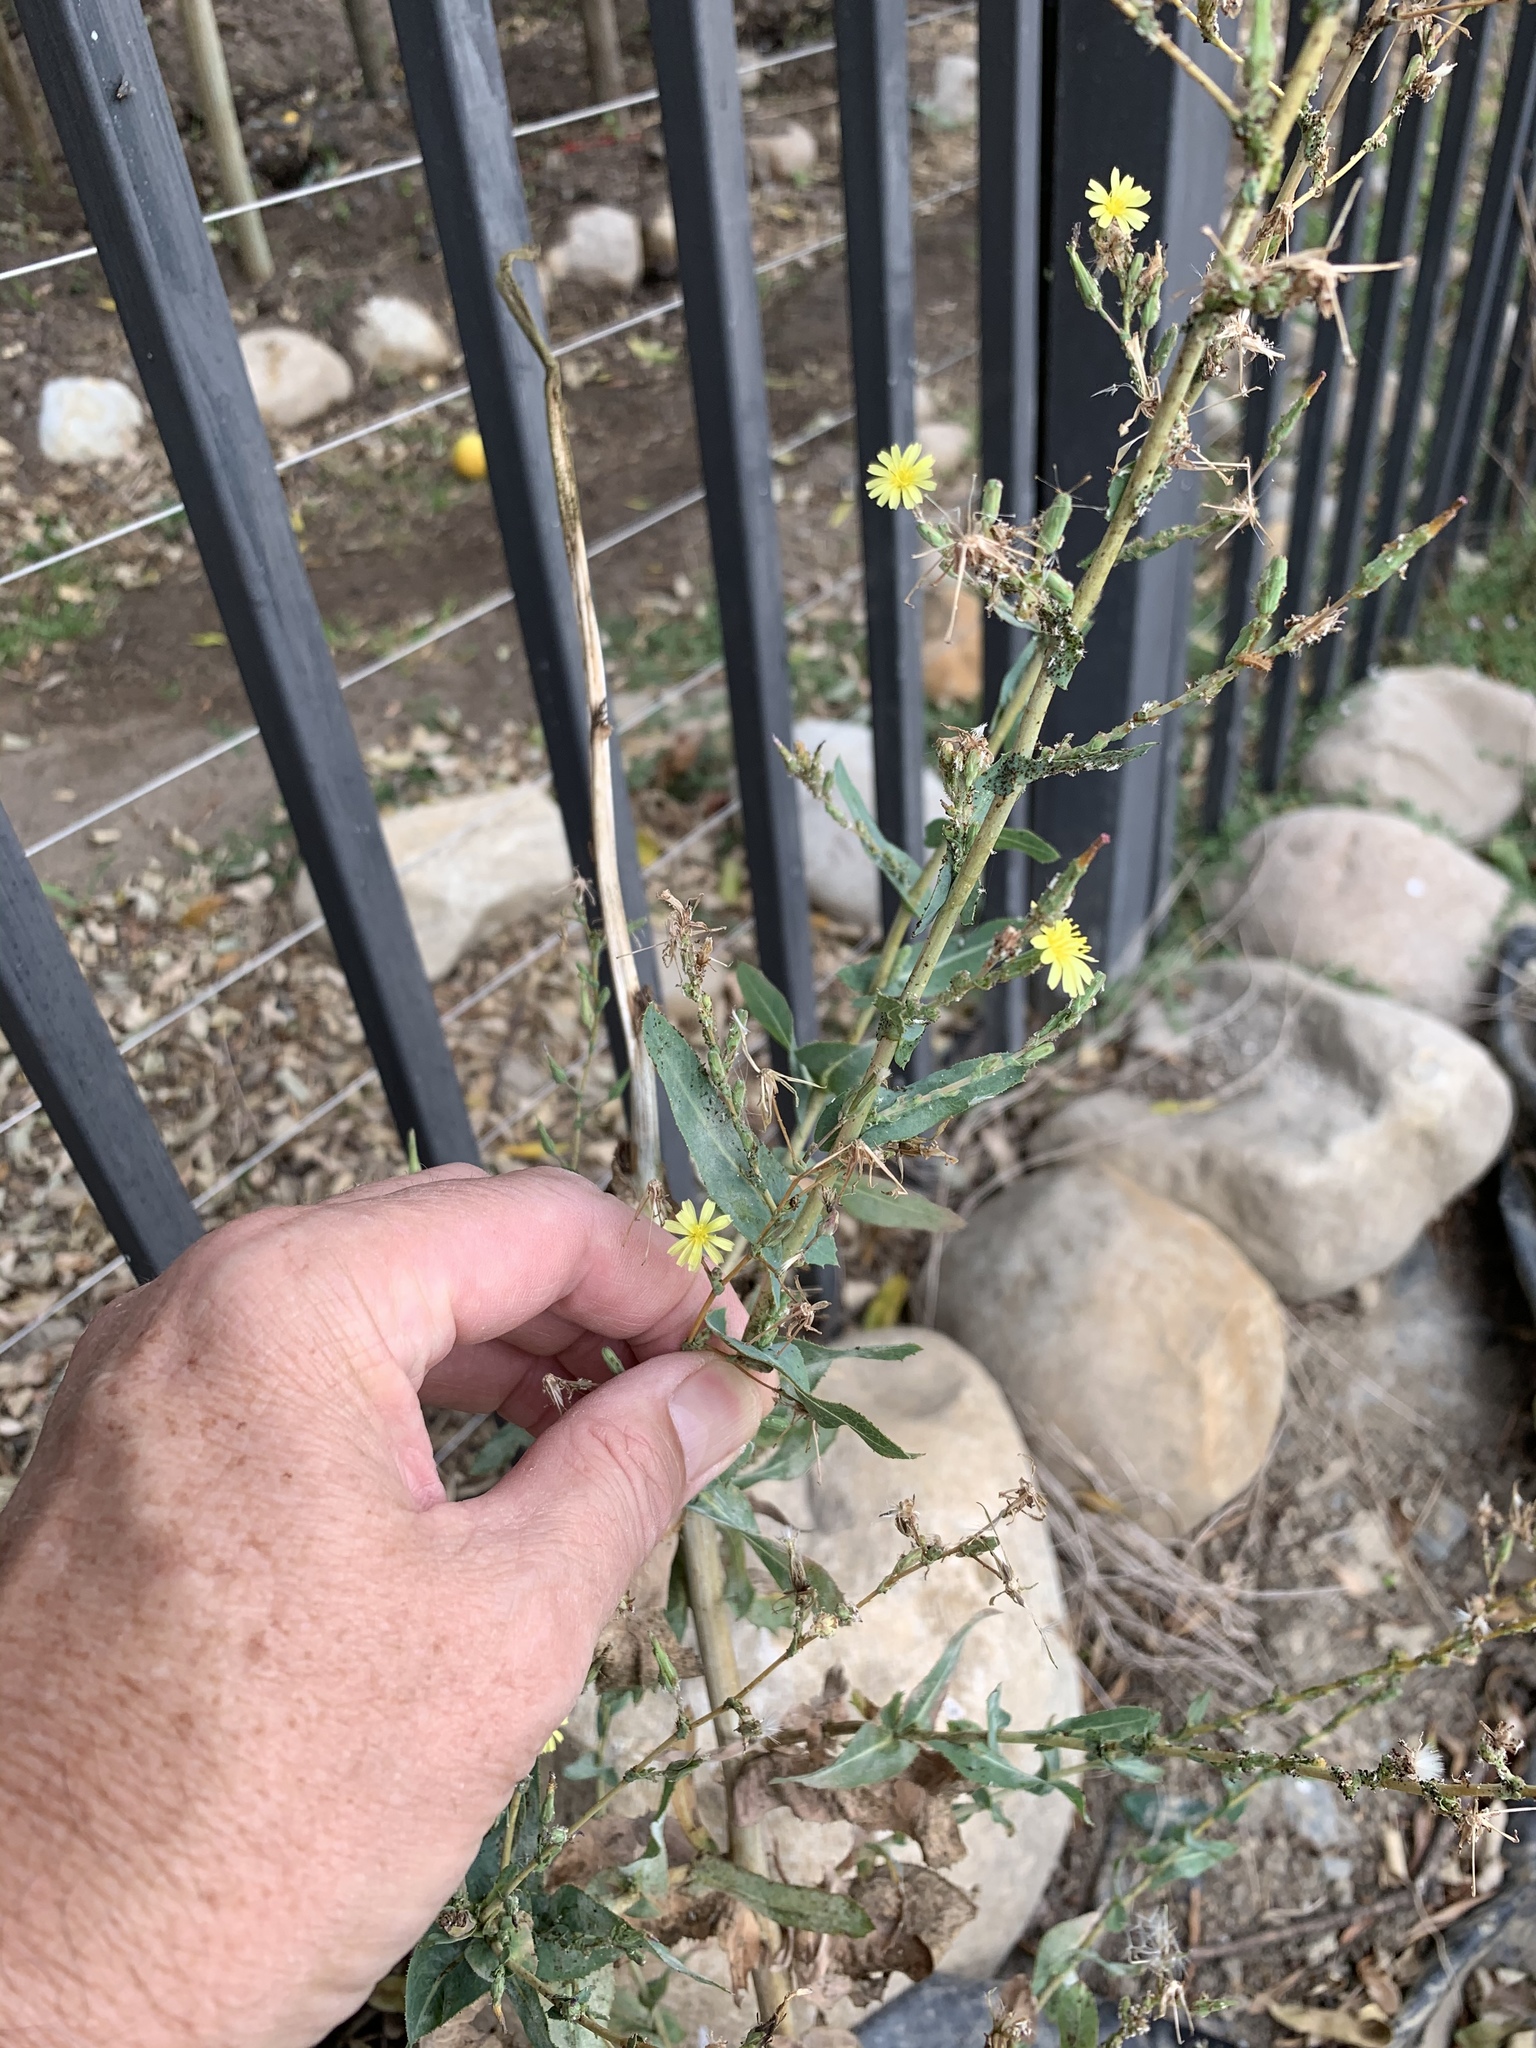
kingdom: Plantae
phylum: Tracheophyta
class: Magnoliopsida
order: Asterales
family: Asteraceae
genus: Lactuca
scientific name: Lactuca serriola
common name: Prickly lettuce
